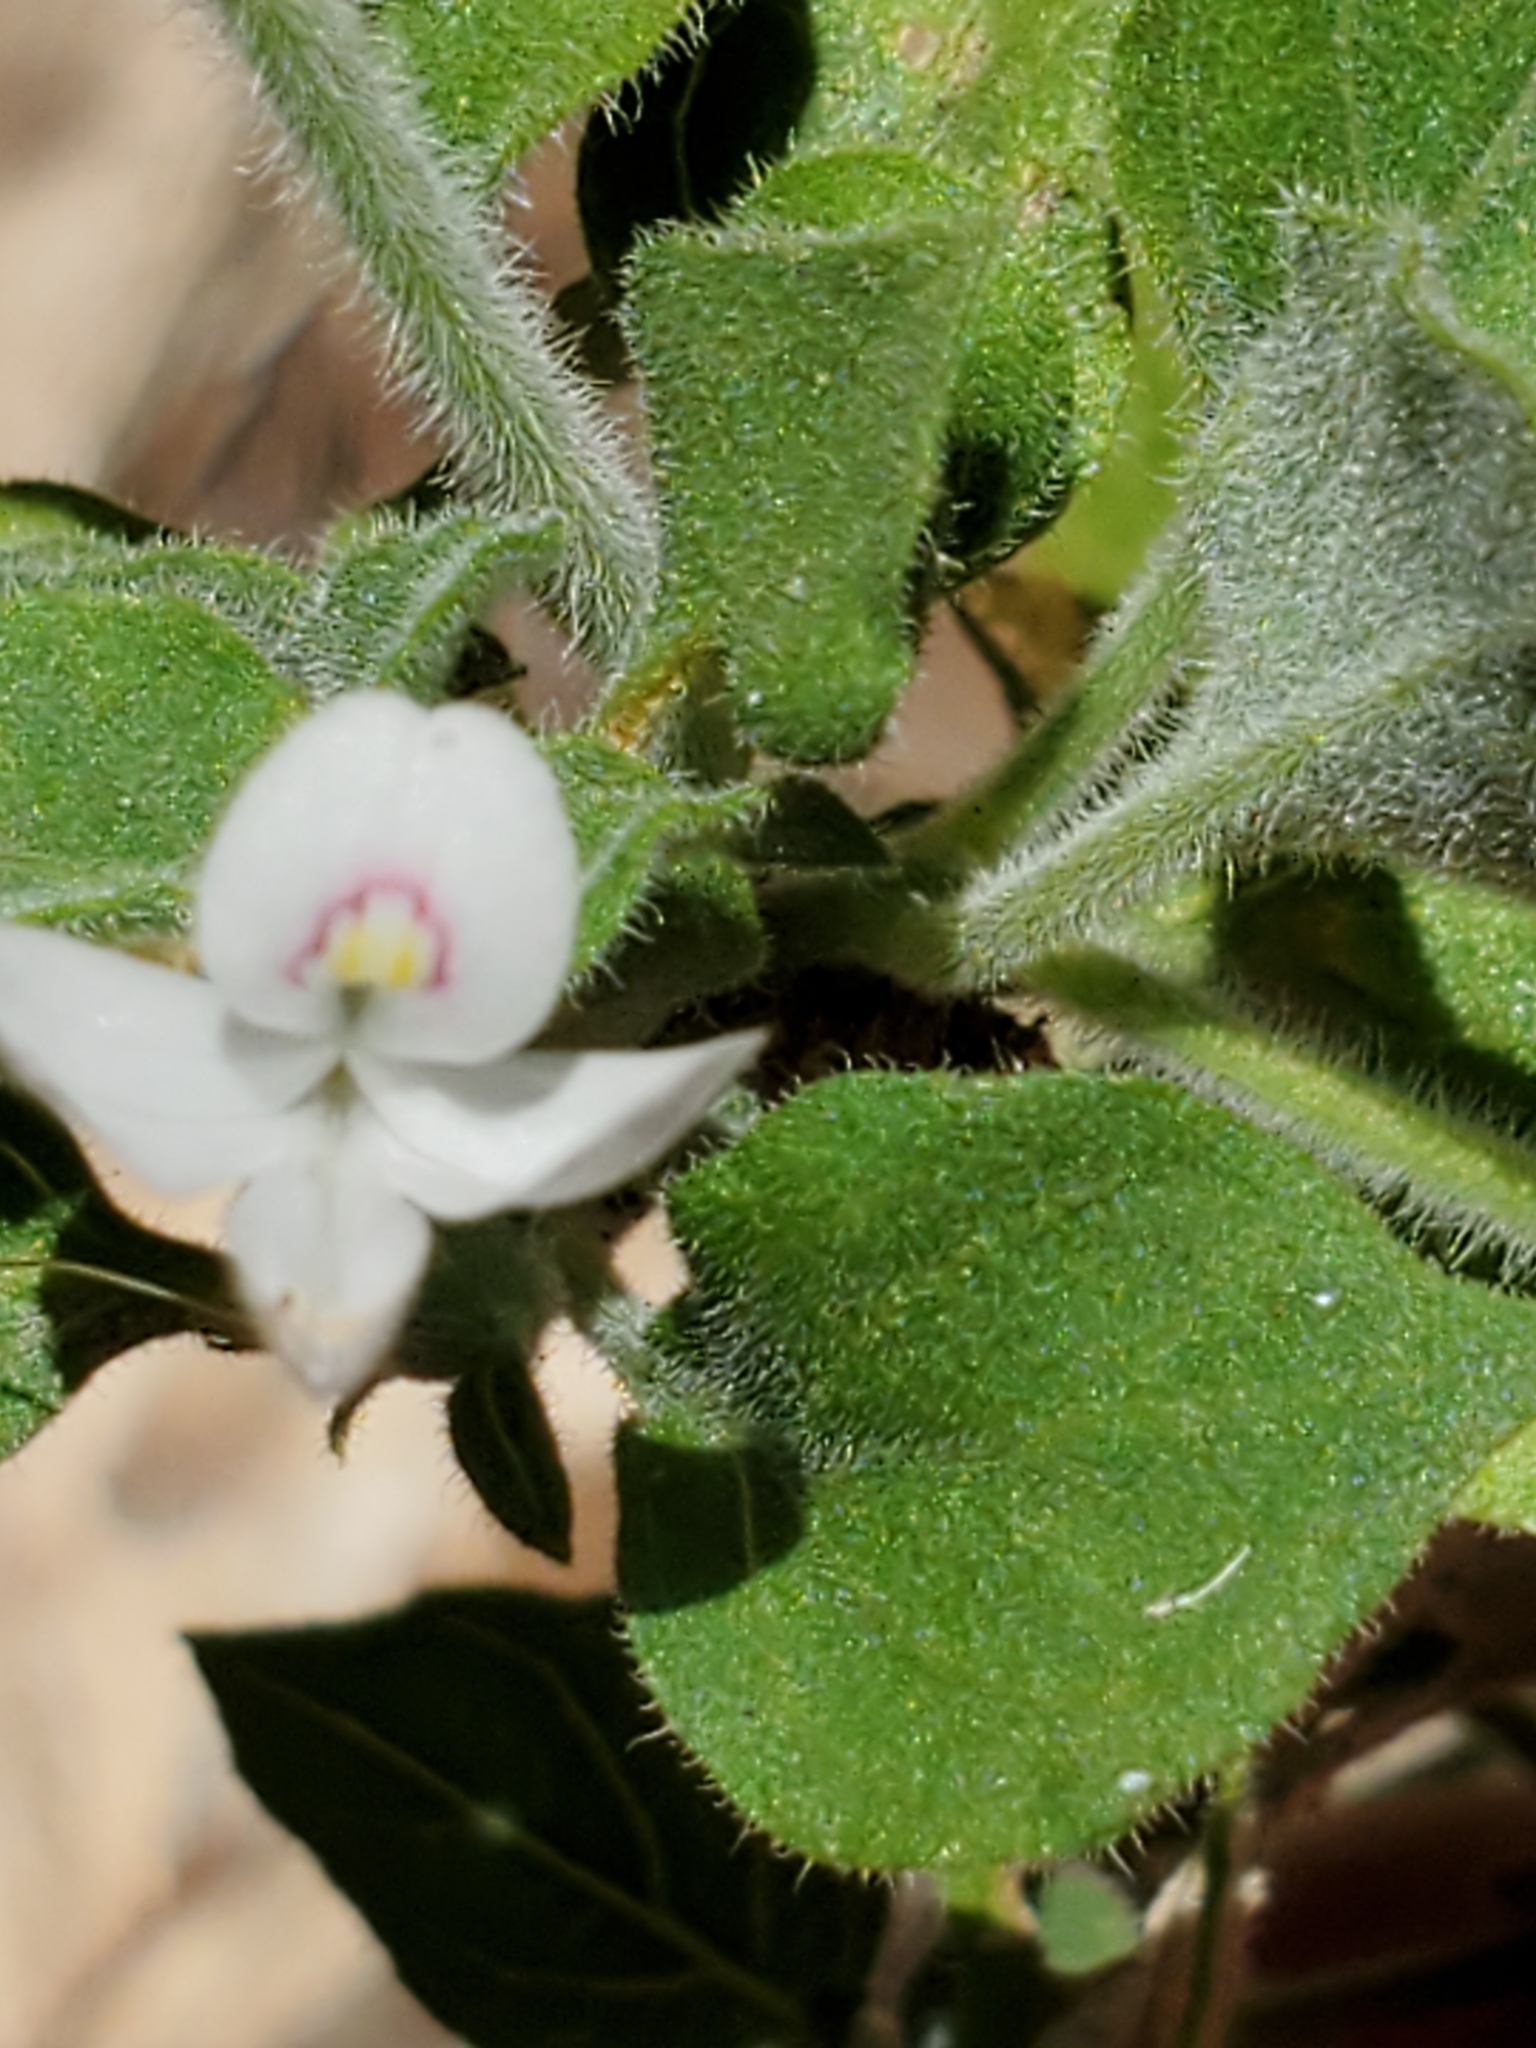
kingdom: Plantae
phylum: Tracheophyta
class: Magnoliopsida
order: Lamiales
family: Acanthaceae
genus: Carlowrightia
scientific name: Carlowrightia torreyana
